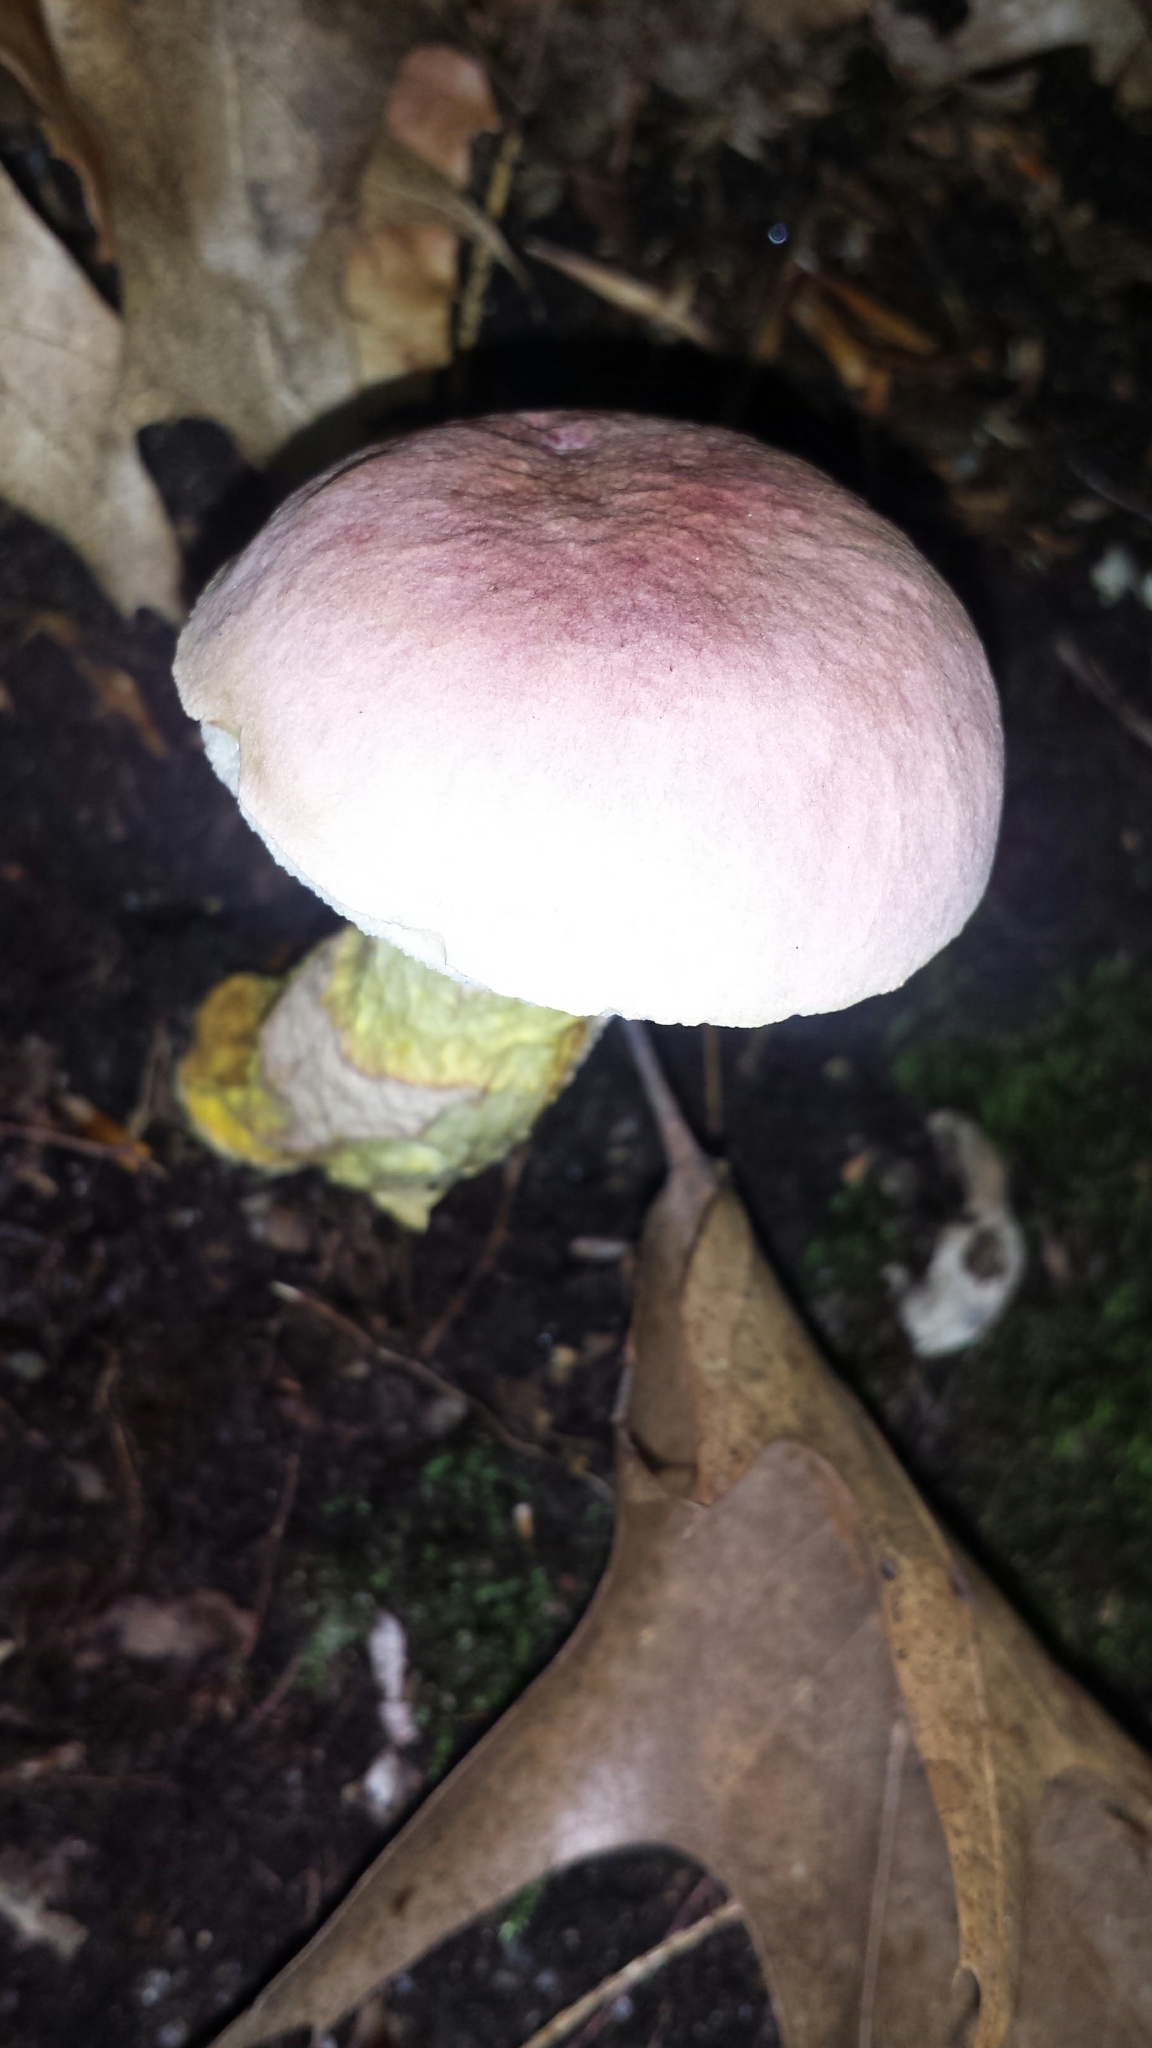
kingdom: Fungi
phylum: Basidiomycota
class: Agaricomycetes
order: Boletales
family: Boletaceae
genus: Harrya
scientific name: Harrya chromipes
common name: Chrome-footed bolete
